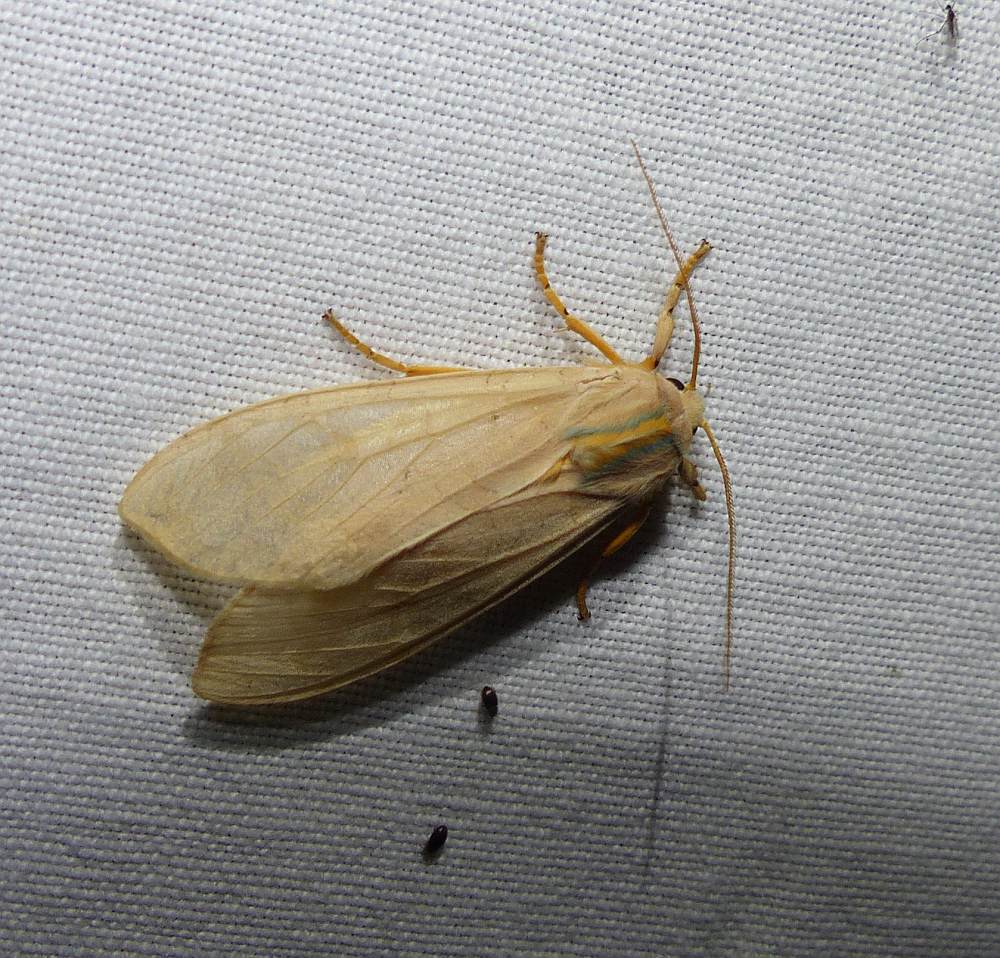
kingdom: Animalia
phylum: Arthropoda
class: Insecta
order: Lepidoptera
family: Erebidae
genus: Halysidota
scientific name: Halysidota tessellaris
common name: Banded tussock moth
